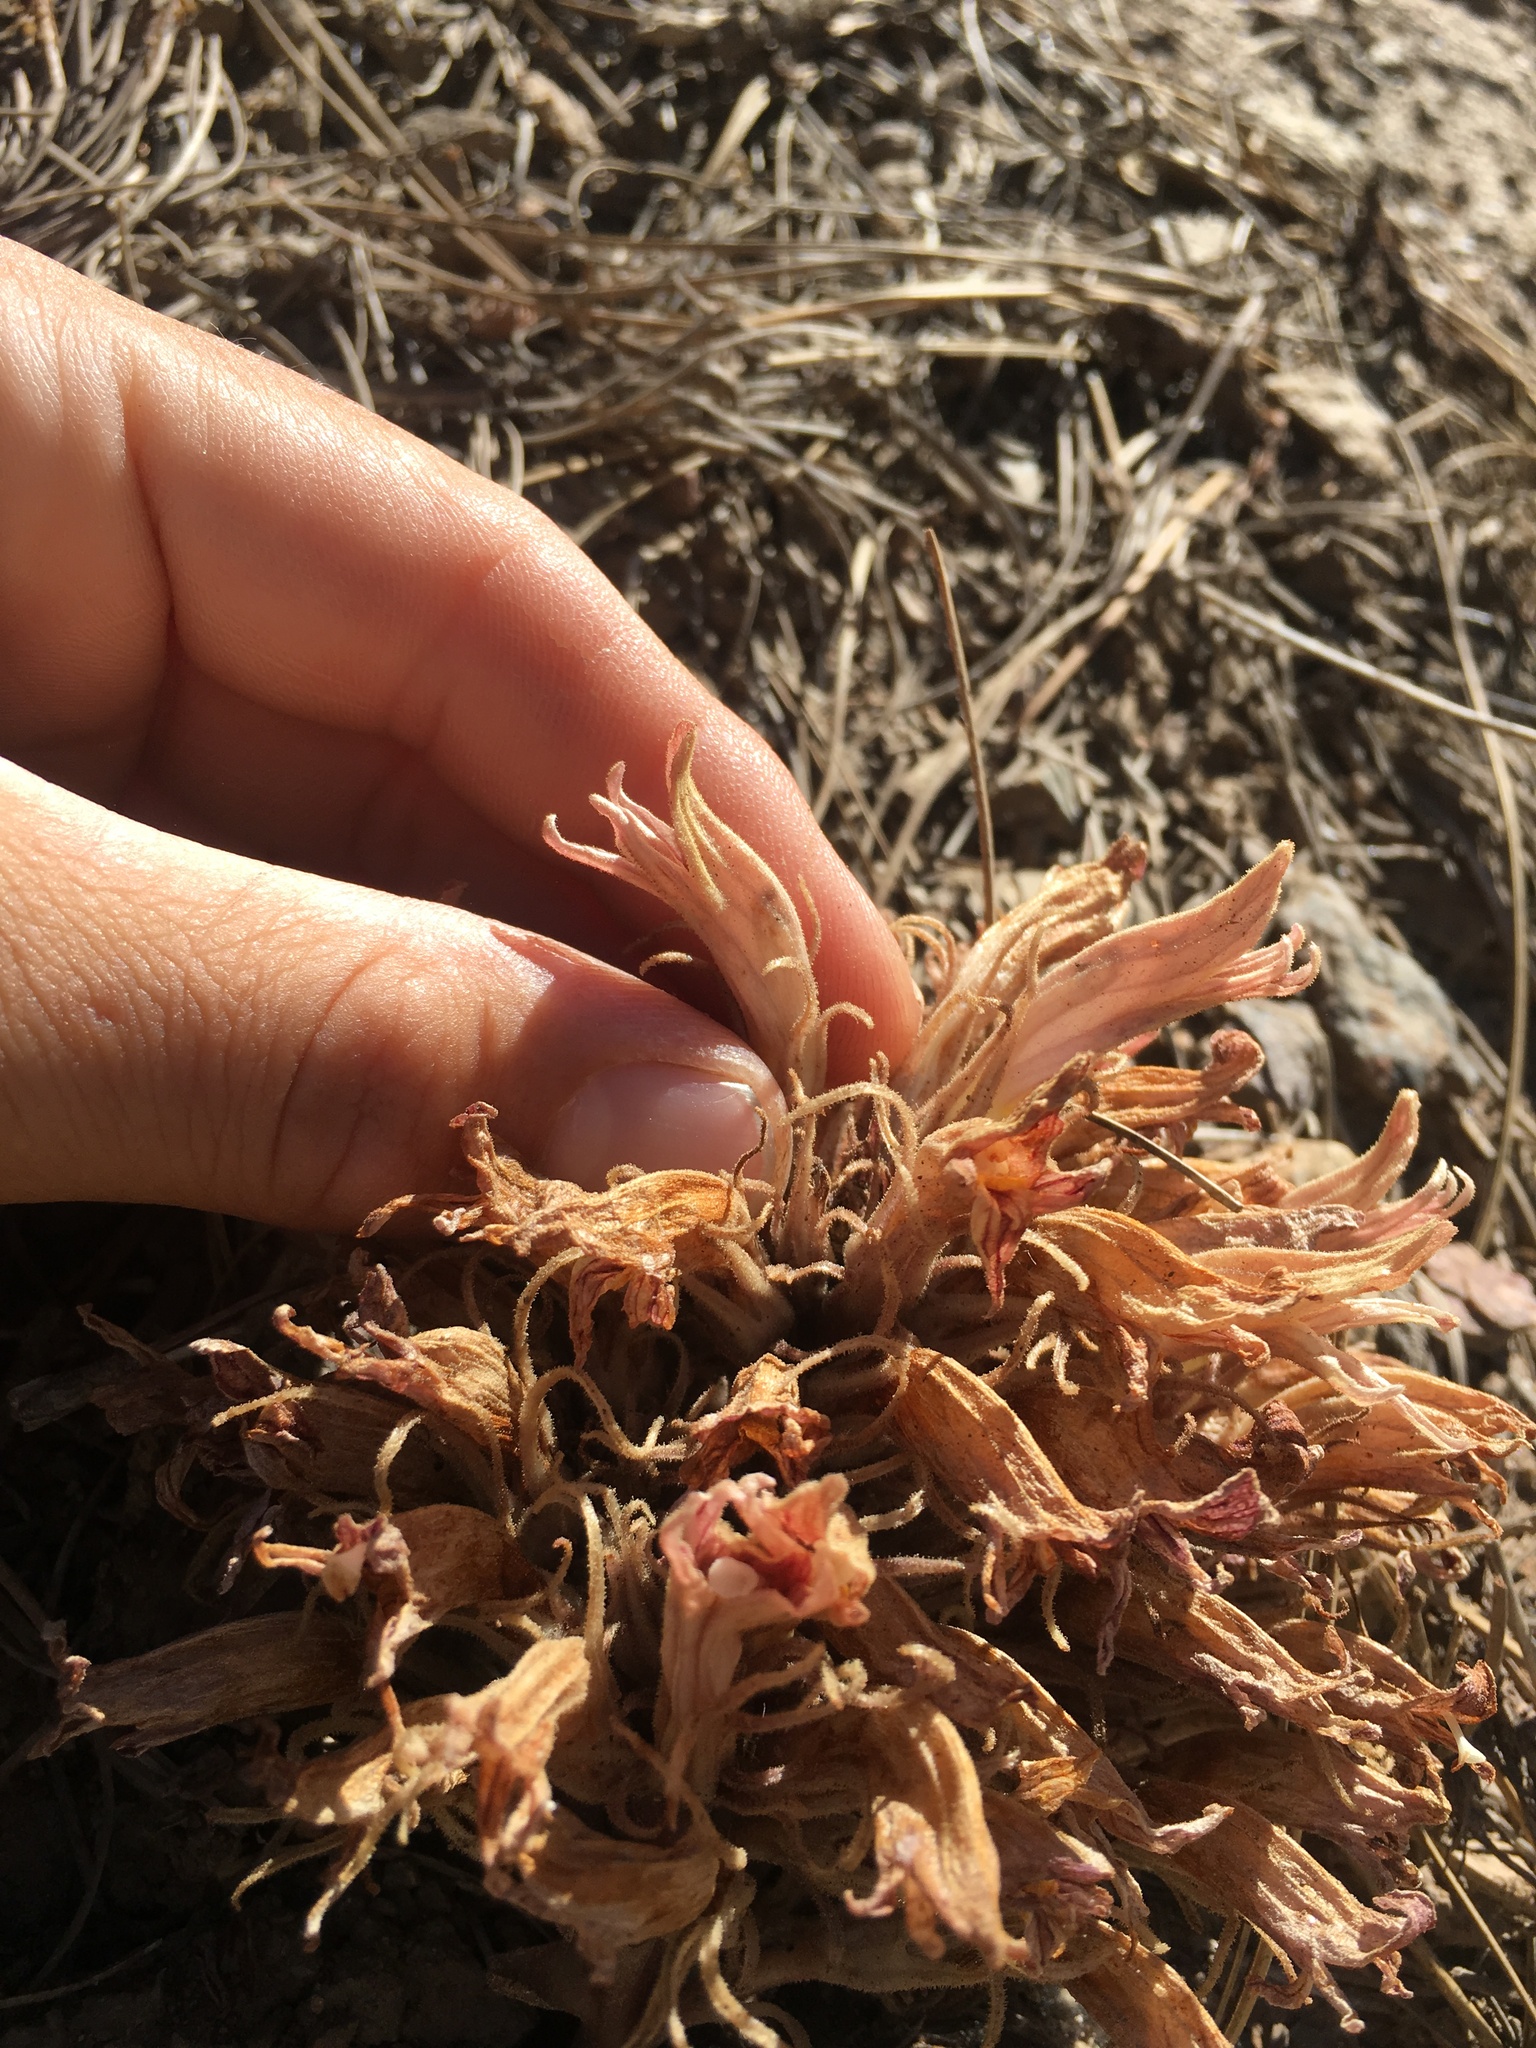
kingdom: Plantae
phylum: Tracheophyta
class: Magnoliopsida
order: Lamiales
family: Orobanchaceae
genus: Aphyllon
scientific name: Aphyllon californicum
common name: California broomrape
